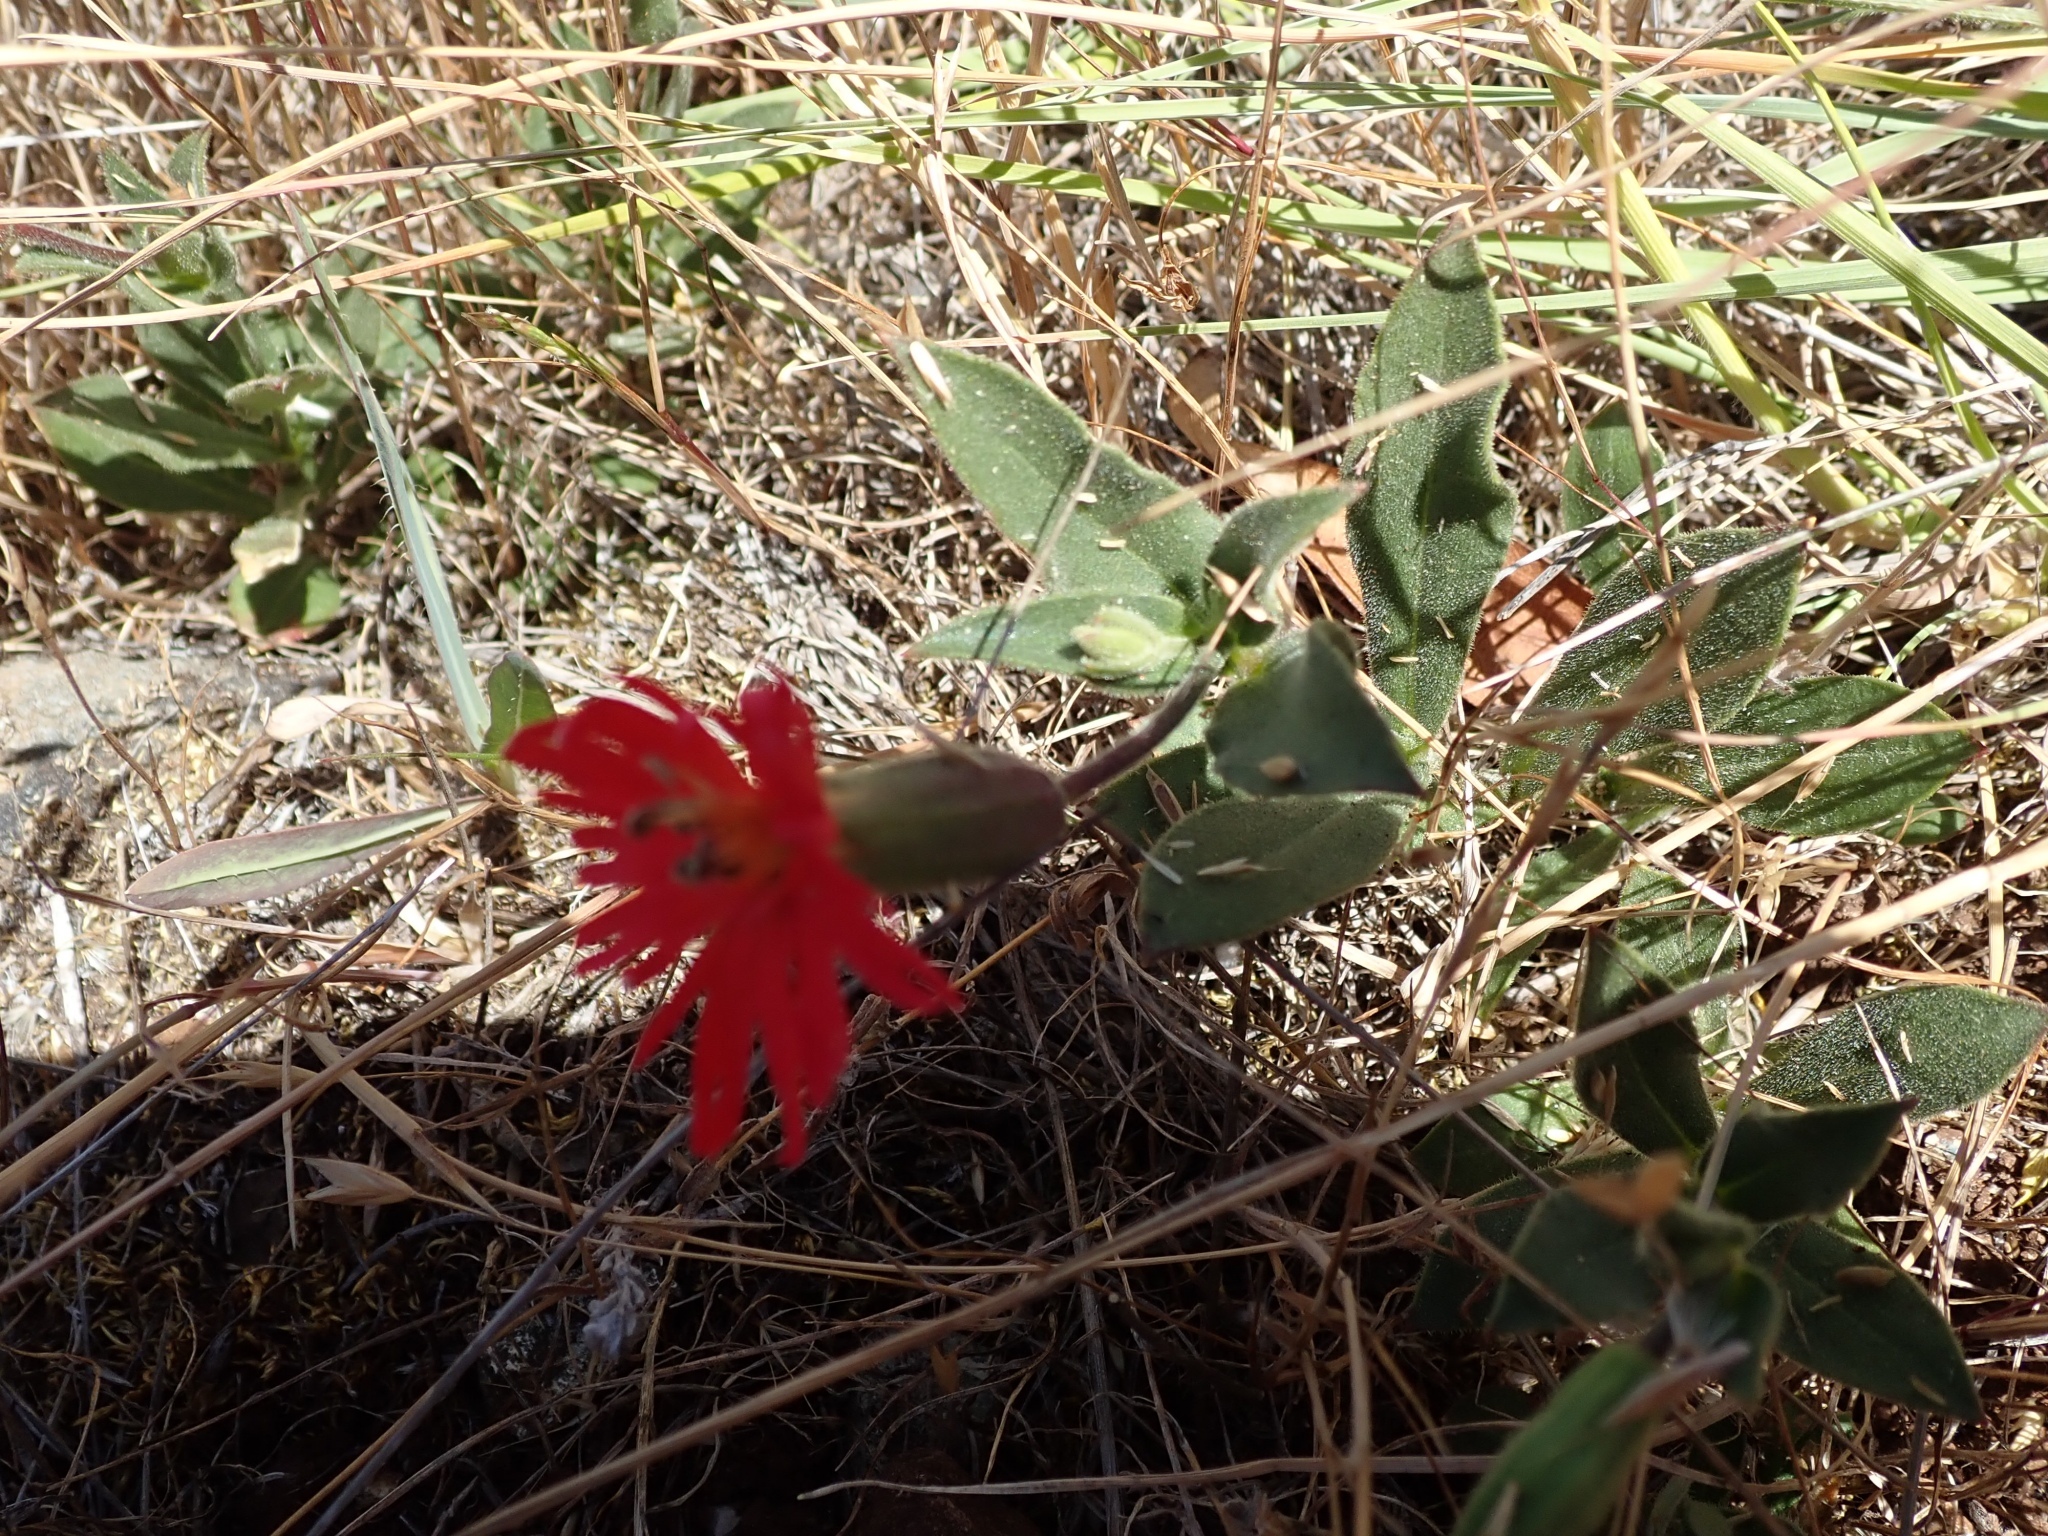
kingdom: Plantae
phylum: Tracheophyta
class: Magnoliopsida
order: Caryophyllales
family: Caryophyllaceae
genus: Silene
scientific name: Silene laciniata
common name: Indian-pink
